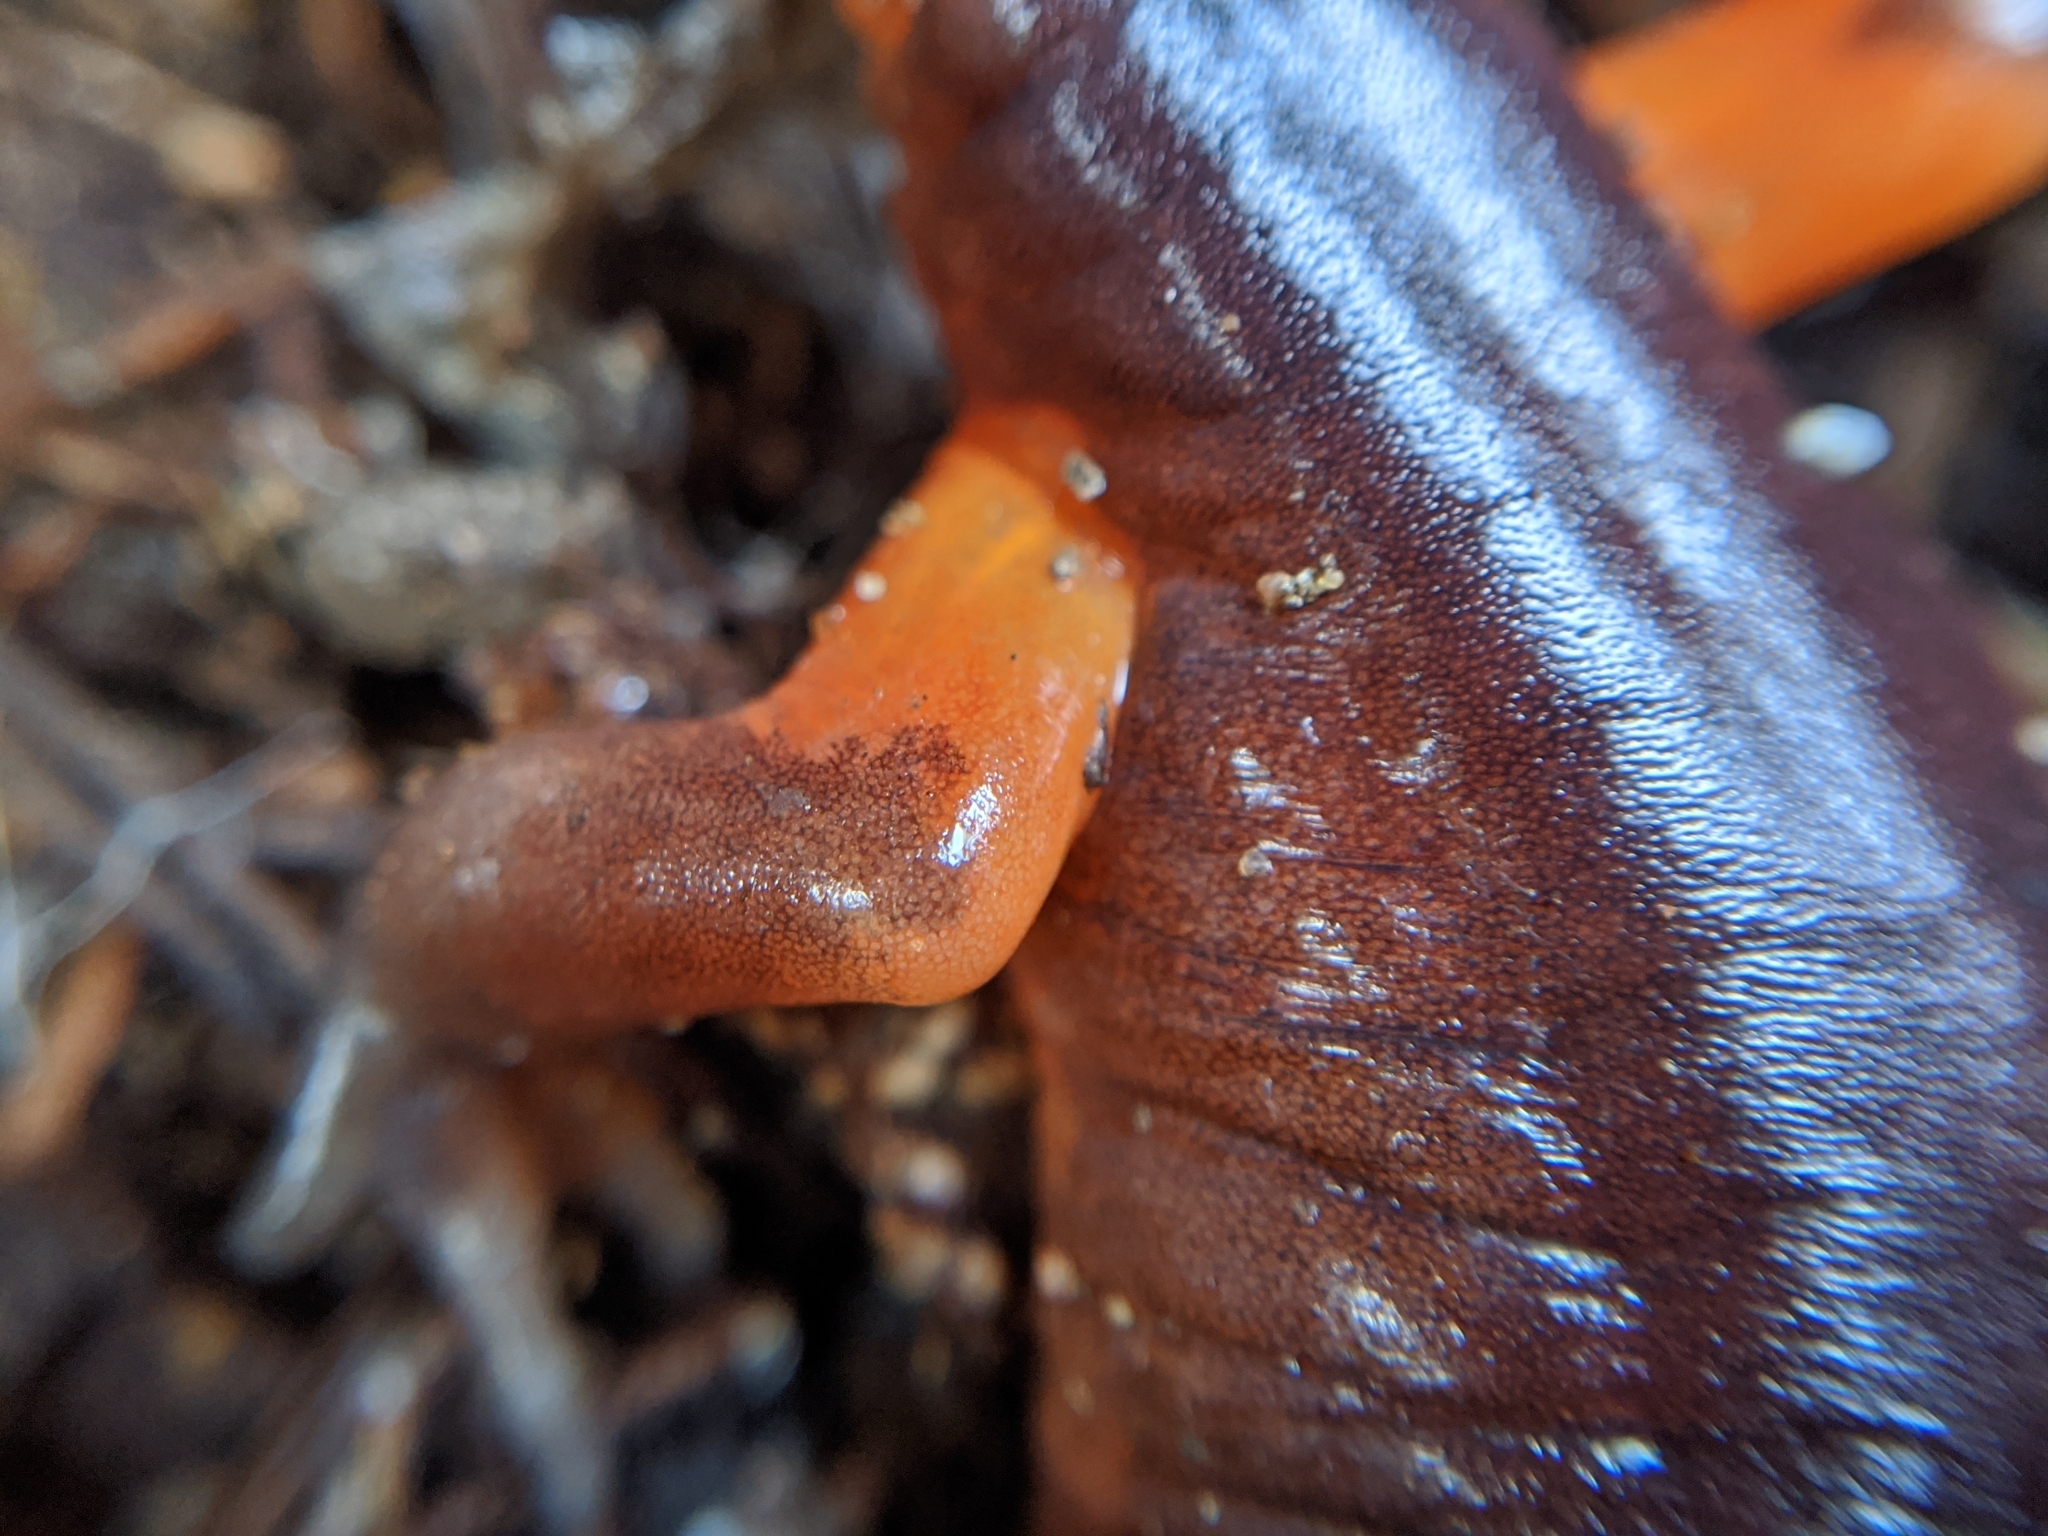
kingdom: Animalia
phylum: Chordata
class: Amphibia
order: Caudata
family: Plethodontidae
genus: Ensatina
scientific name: Ensatina eschscholtzii
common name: Ensatina
